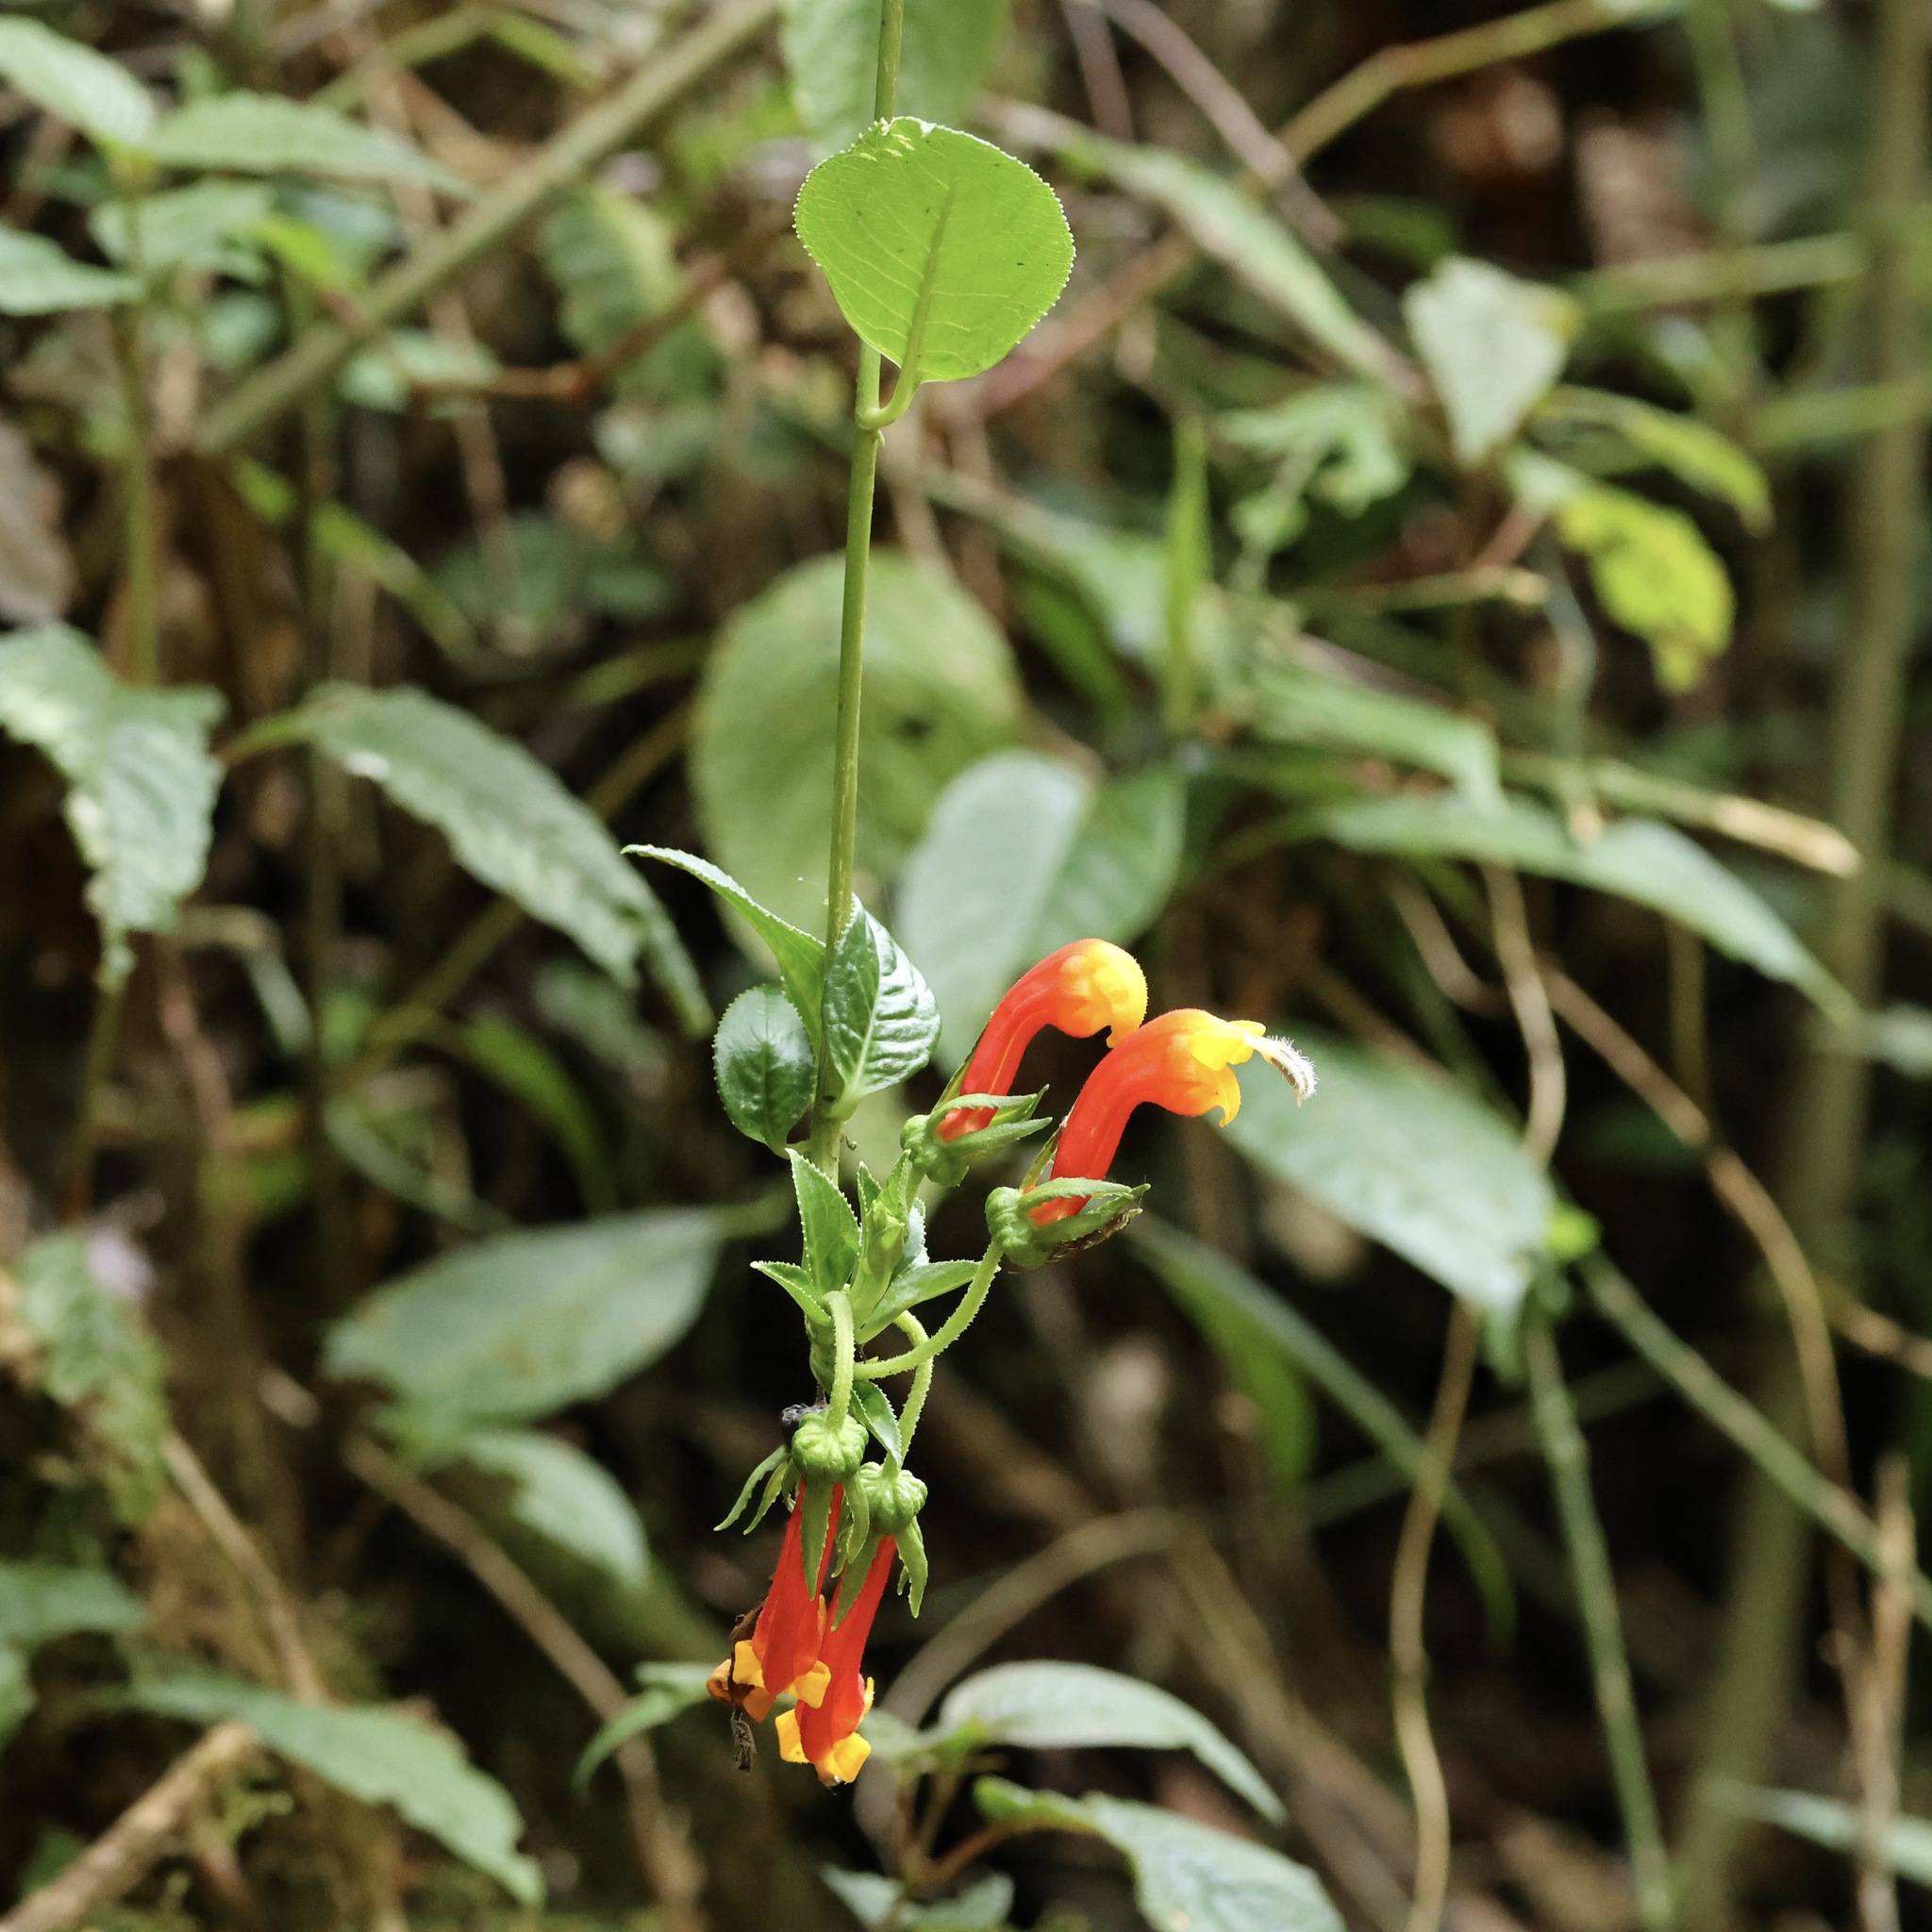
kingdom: Plantae
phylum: Tracheophyta
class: Magnoliopsida
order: Asterales
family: Campanulaceae
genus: Centropogon
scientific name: Centropogon granulosus
